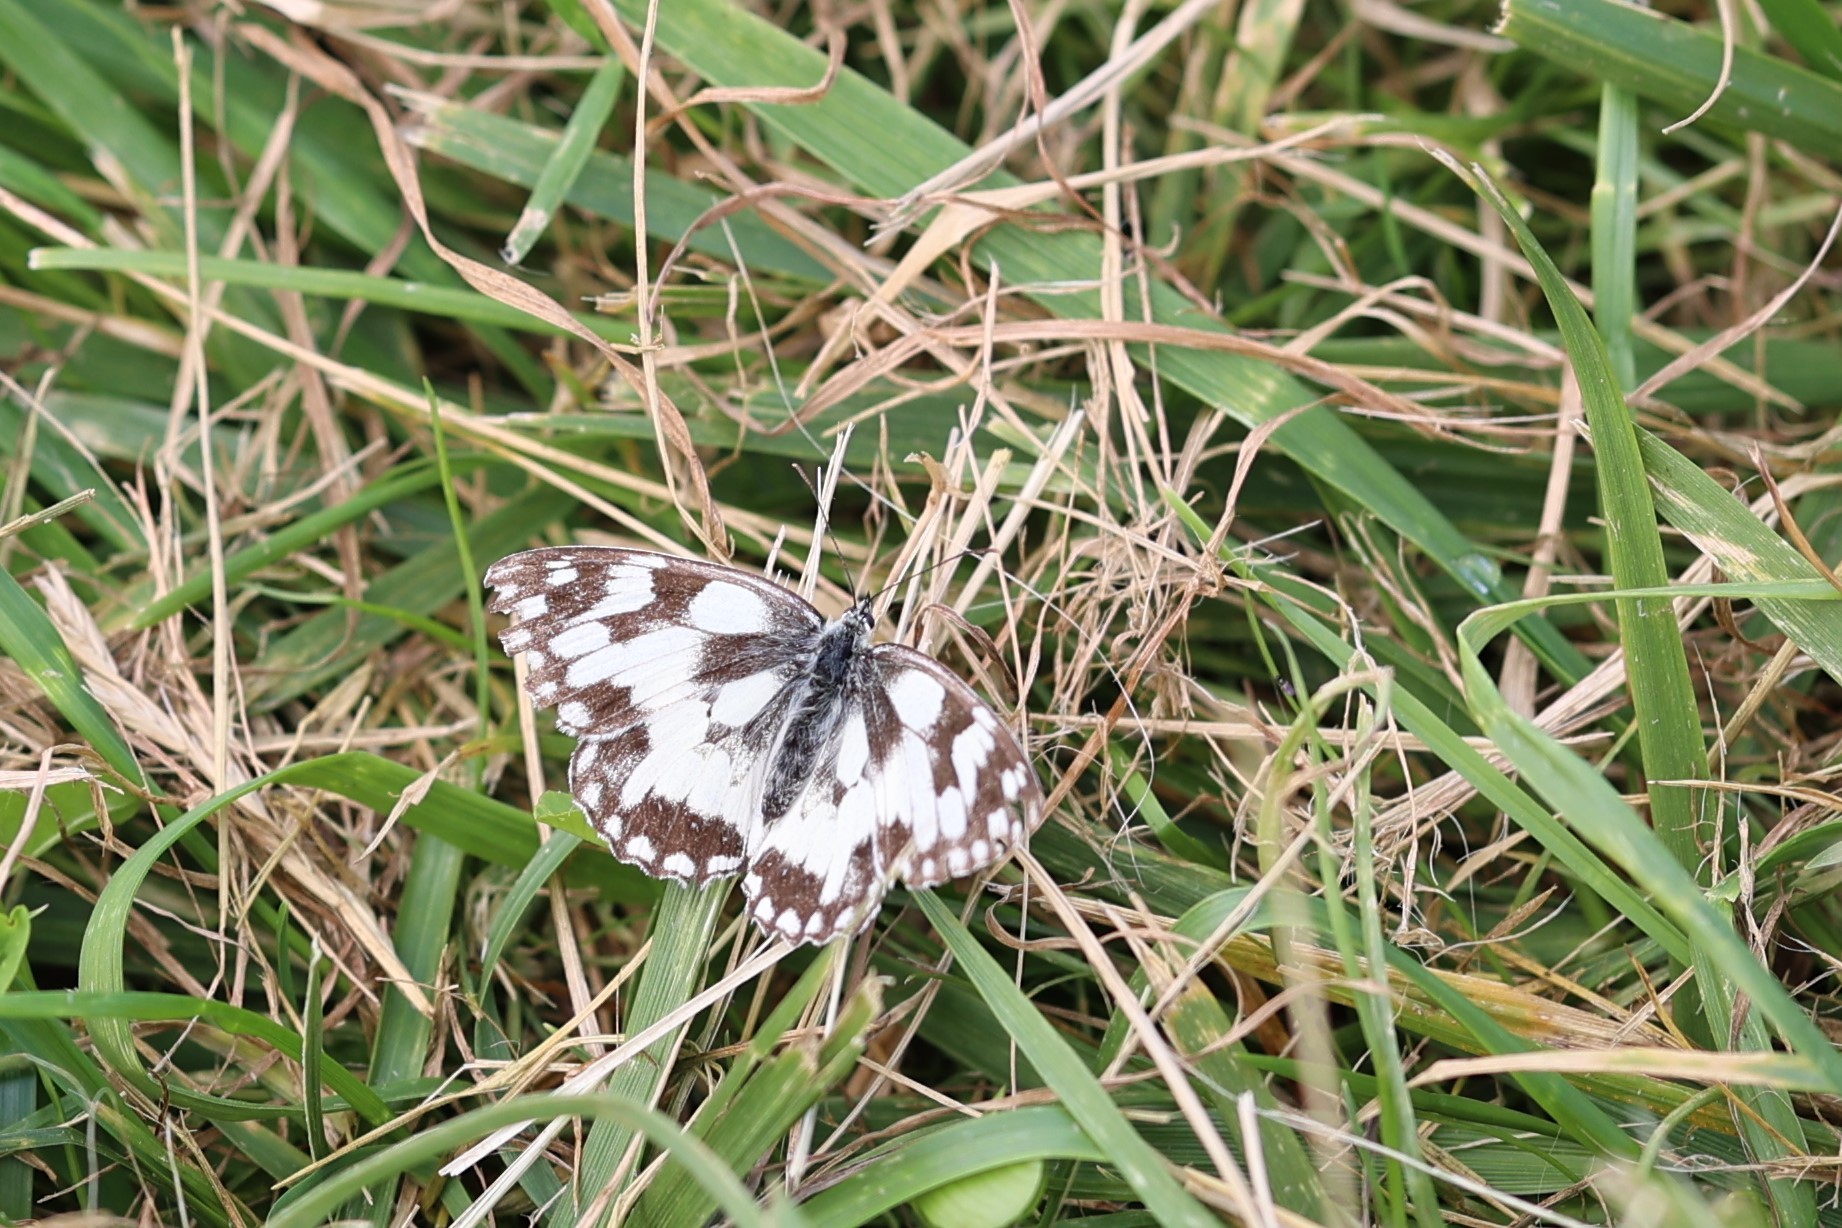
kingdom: Animalia
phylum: Arthropoda
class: Insecta
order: Lepidoptera
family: Nymphalidae
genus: Melanargia
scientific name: Melanargia galathea
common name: Marbled white
